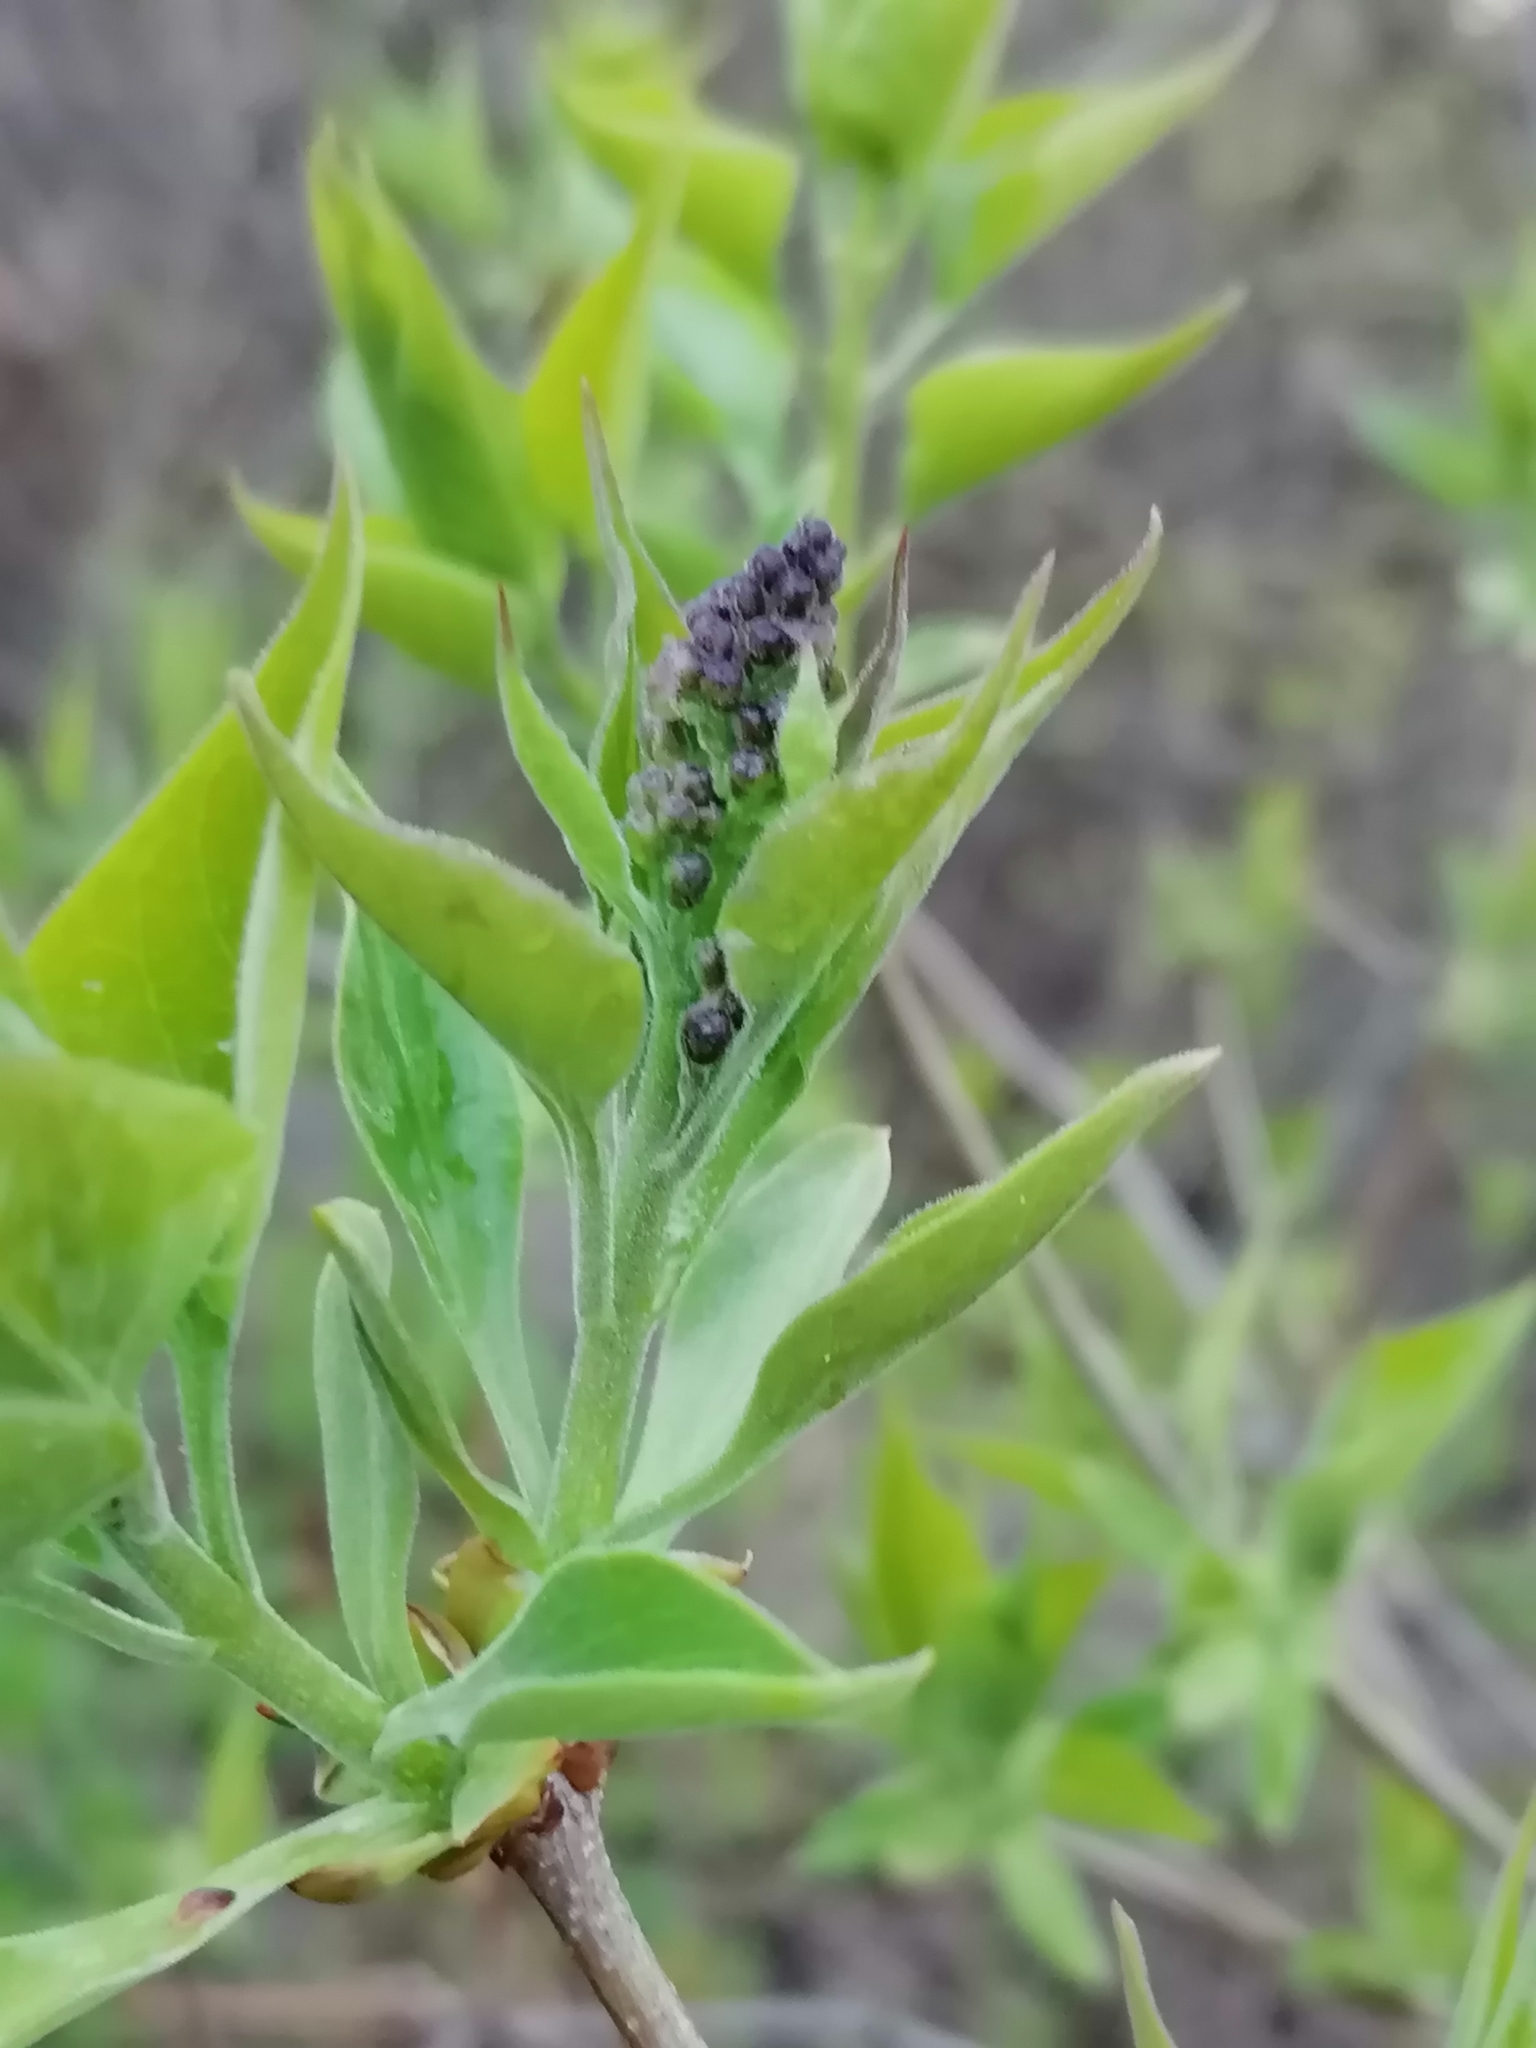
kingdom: Plantae
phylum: Tracheophyta
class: Magnoliopsida
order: Lamiales
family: Oleaceae
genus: Syringa
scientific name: Syringa vulgaris
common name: Common lilac
